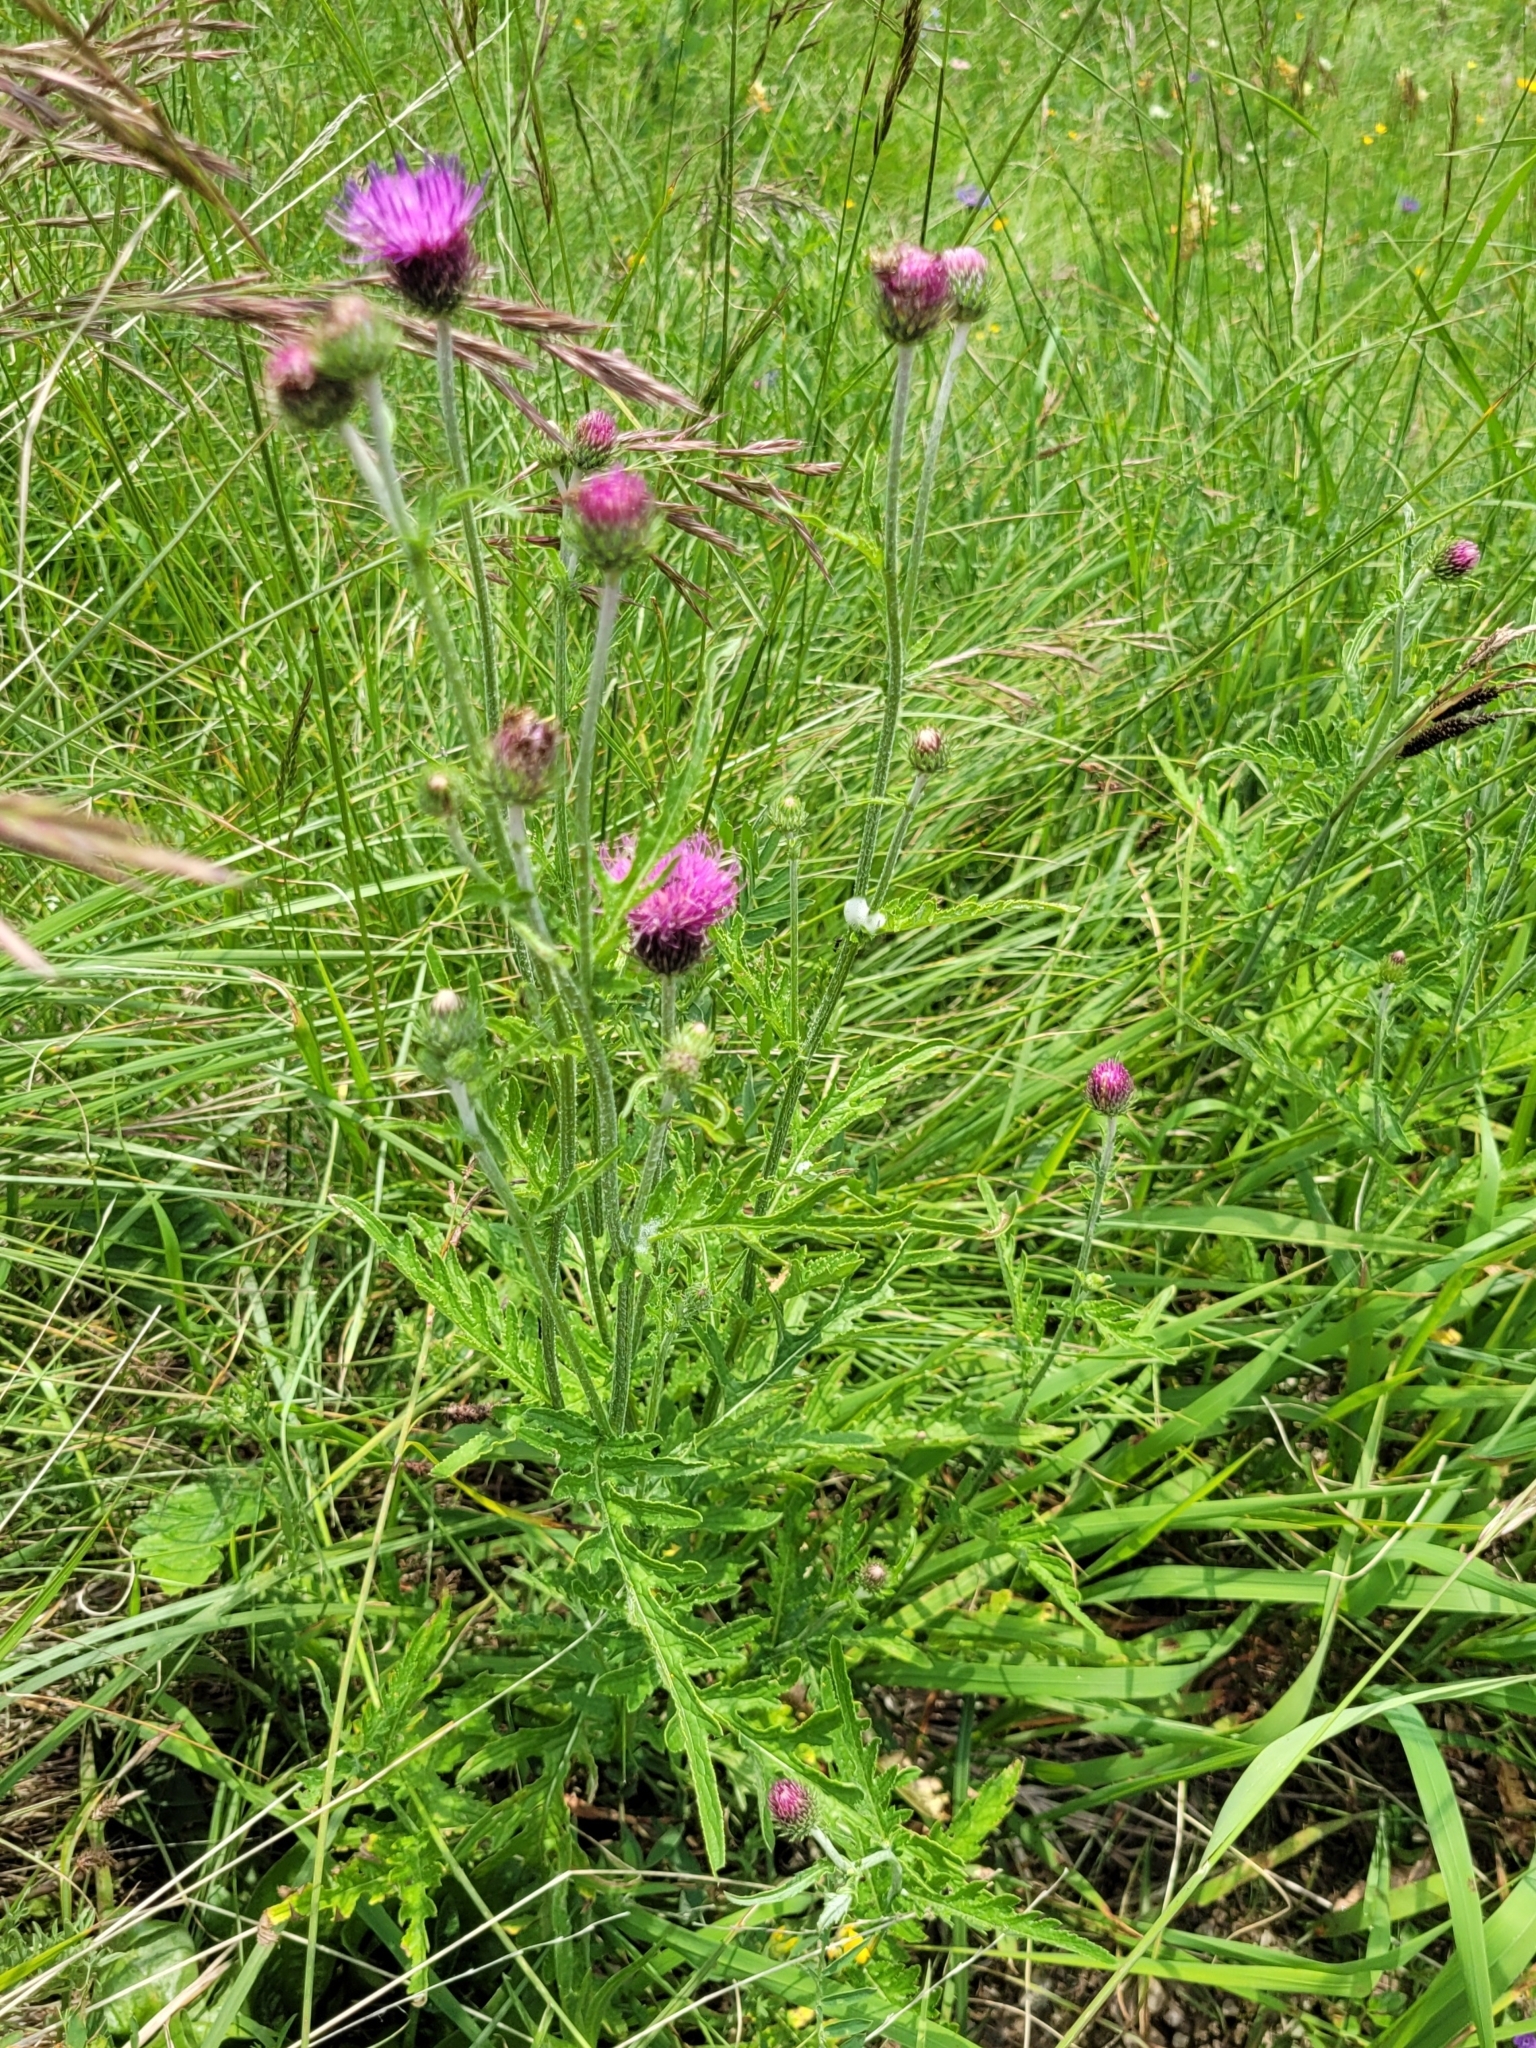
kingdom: Plantae
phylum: Tracheophyta
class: Magnoliopsida
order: Asterales
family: Asteraceae
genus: Carduus
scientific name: Carduus defloratus
